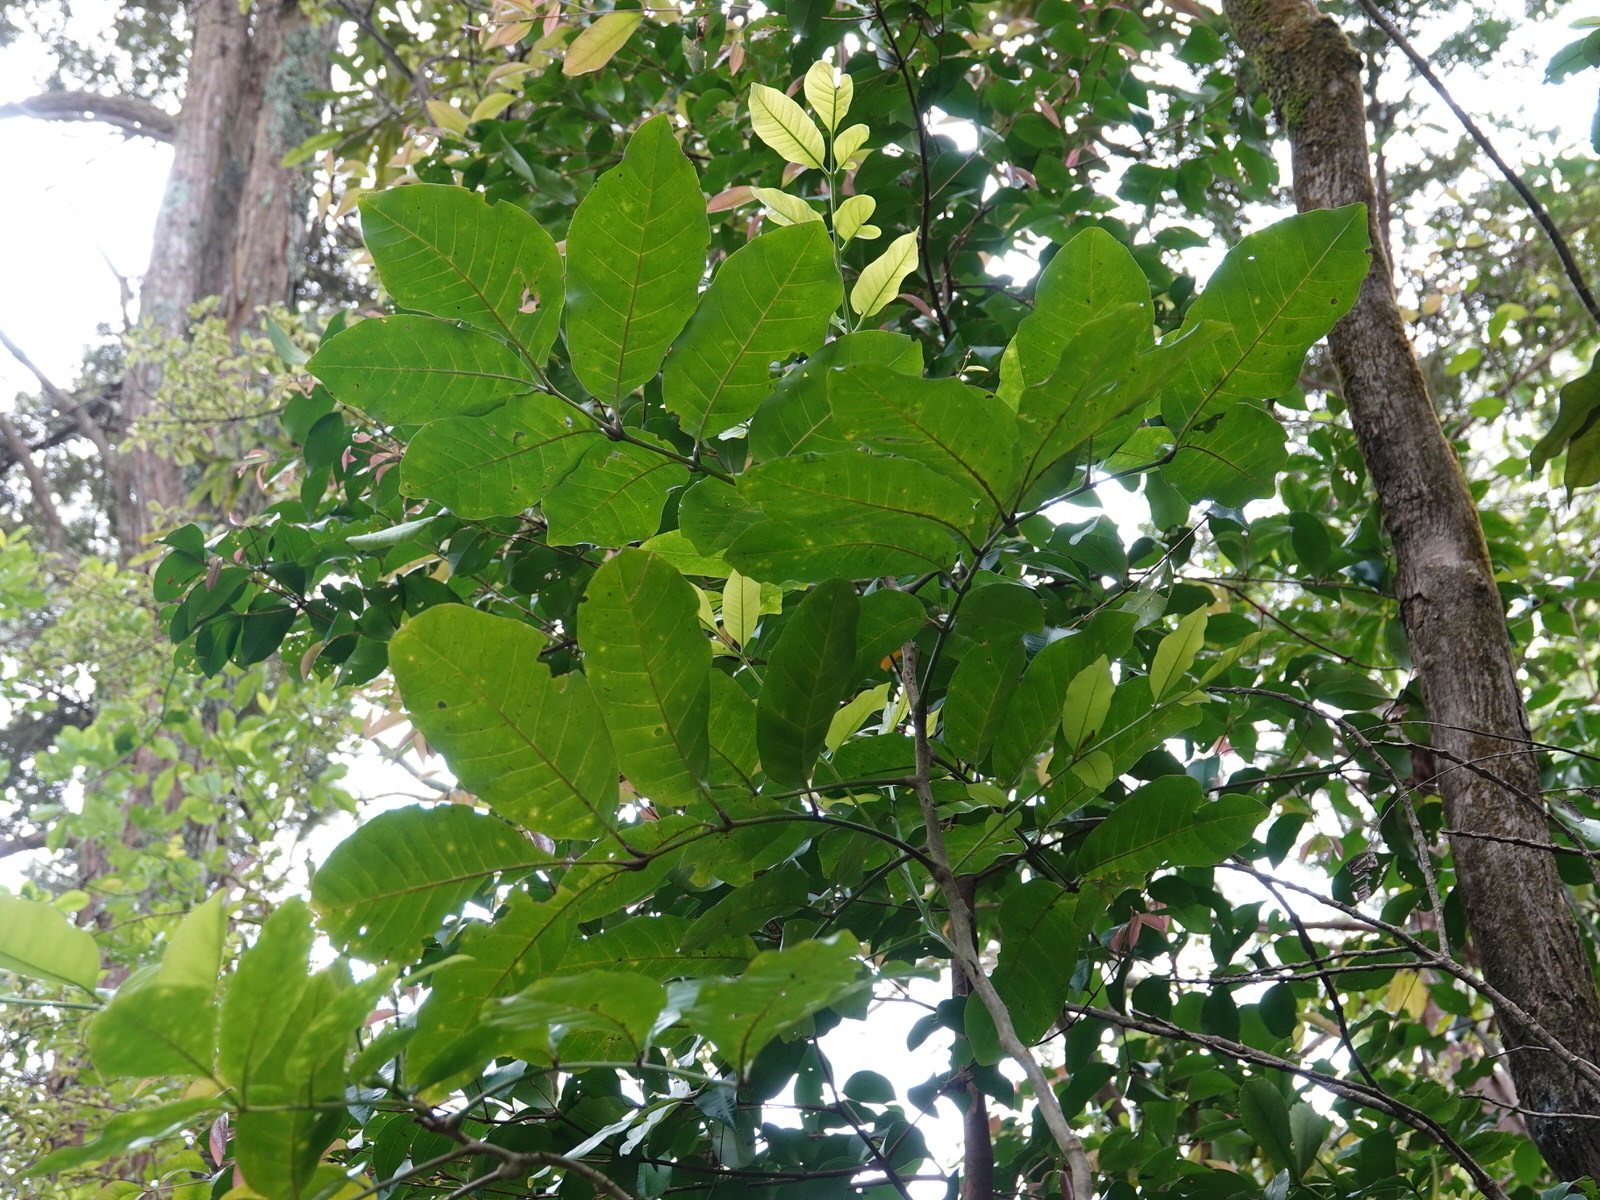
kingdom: Plantae
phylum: Tracheophyta
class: Magnoliopsida
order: Sapindales
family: Meliaceae
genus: Didymocheton
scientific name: Didymocheton spectabilis
